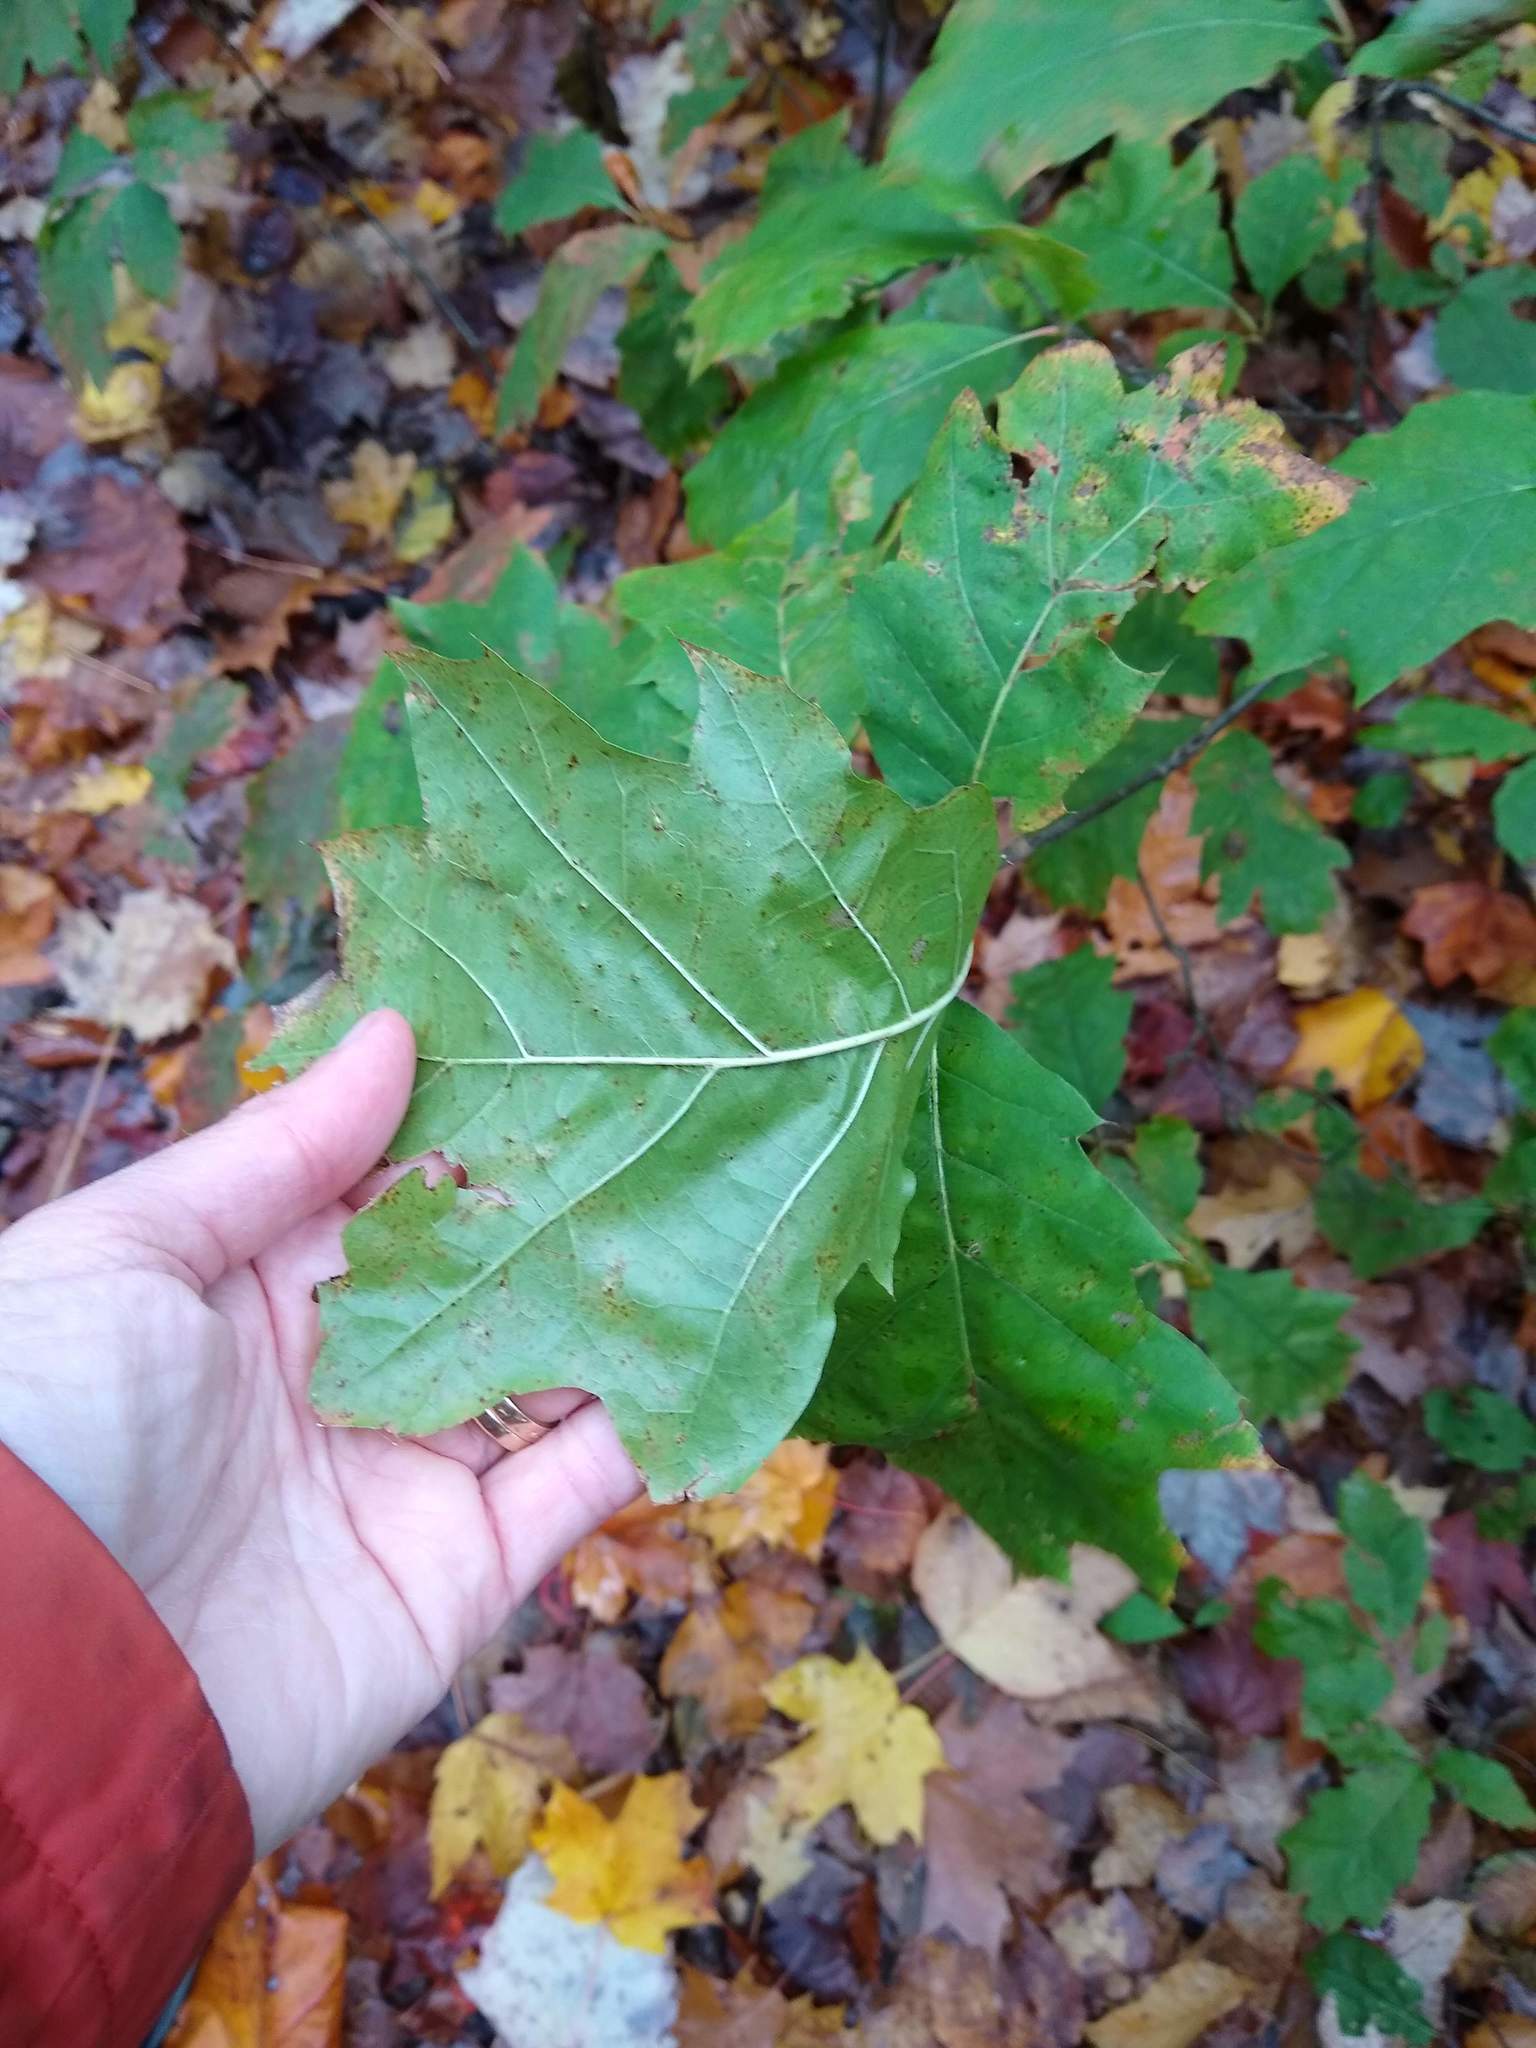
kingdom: Plantae
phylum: Tracheophyta
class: Magnoliopsida
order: Fagales
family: Fagaceae
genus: Quercus
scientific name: Quercus rubra
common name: Red oak
